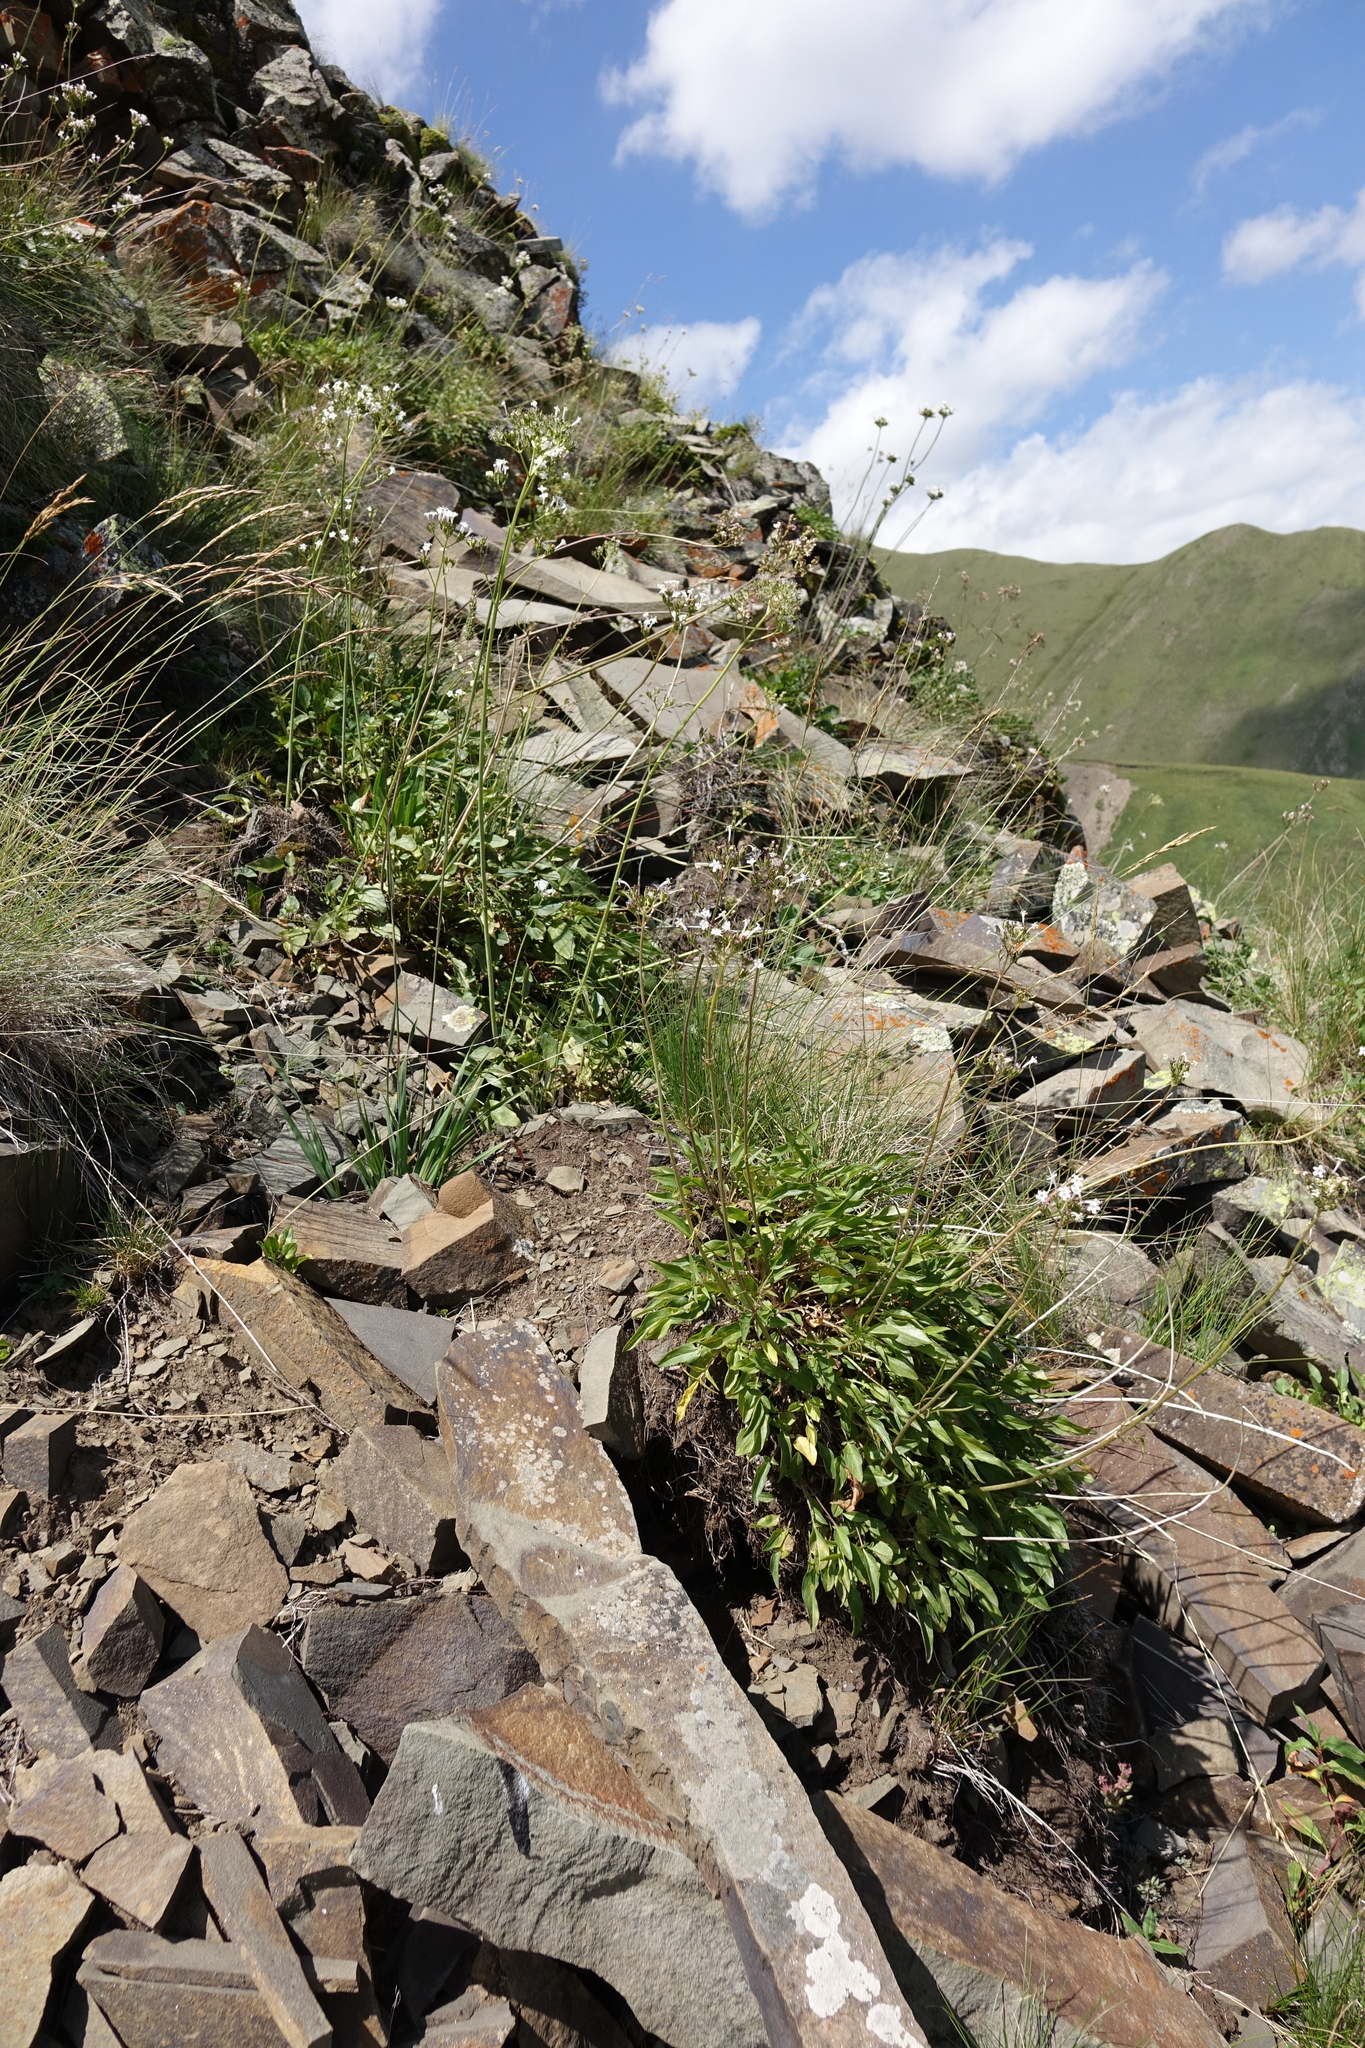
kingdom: Plantae
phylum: Tracheophyta
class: Magnoliopsida
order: Dipsacales
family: Caprifoliaceae
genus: Valeriana
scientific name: Valeriana alpestris
